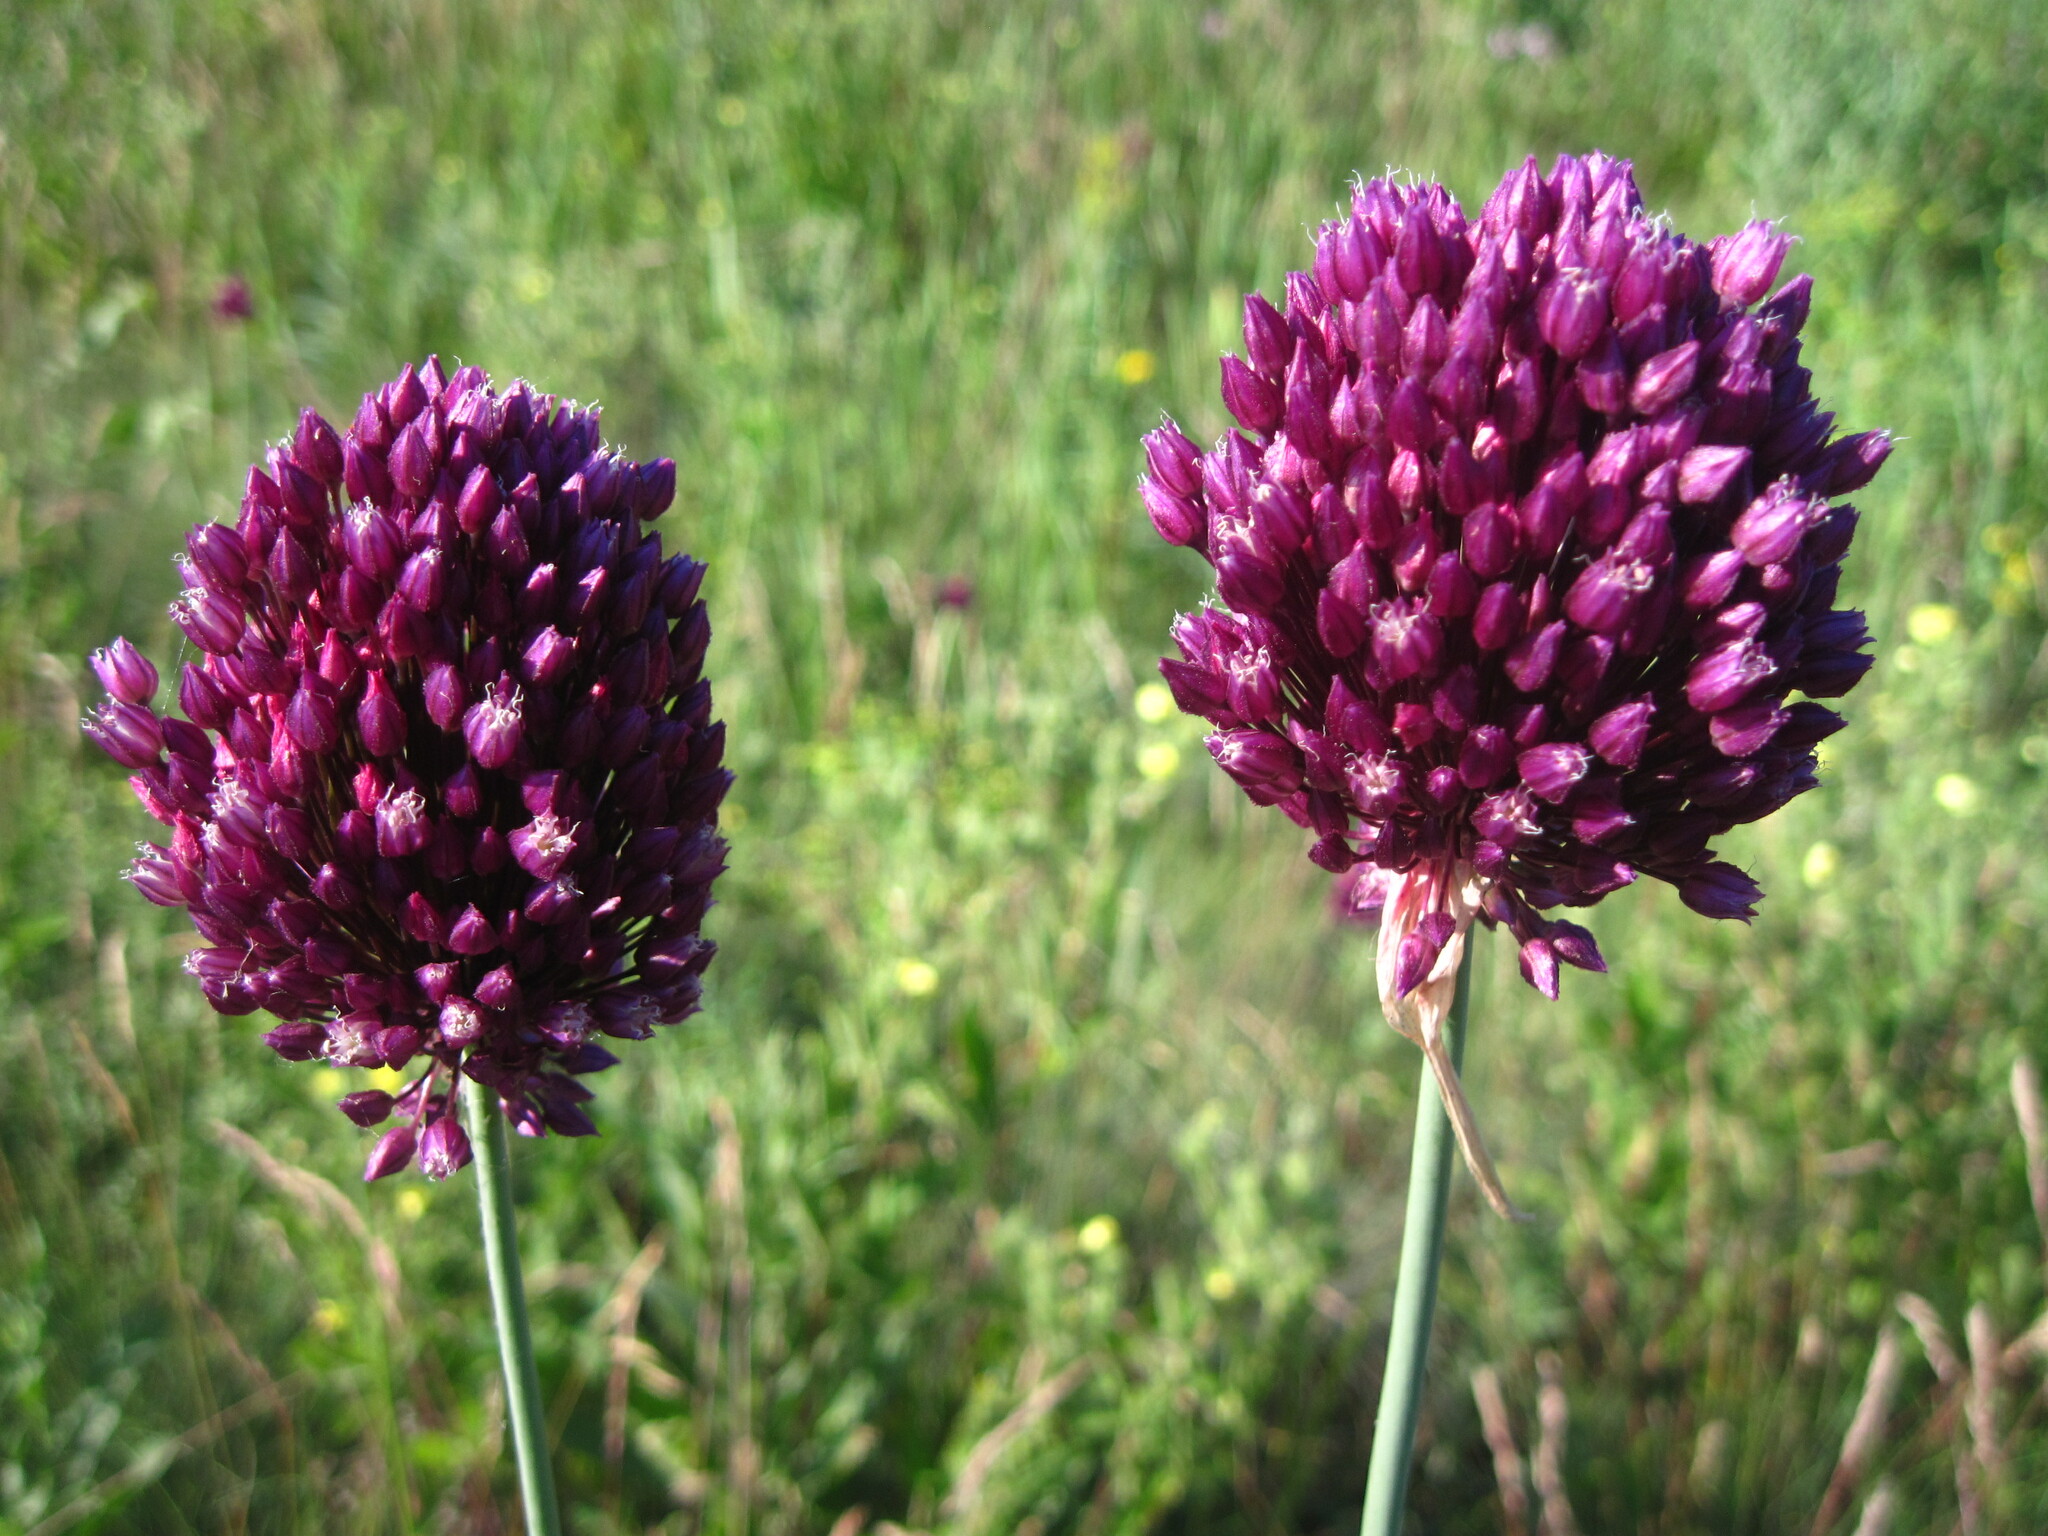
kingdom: Plantae
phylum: Tracheophyta
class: Liliopsida
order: Asparagales
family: Amaryllidaceae
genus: Allium
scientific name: Allium rotundum
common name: Sand leek
